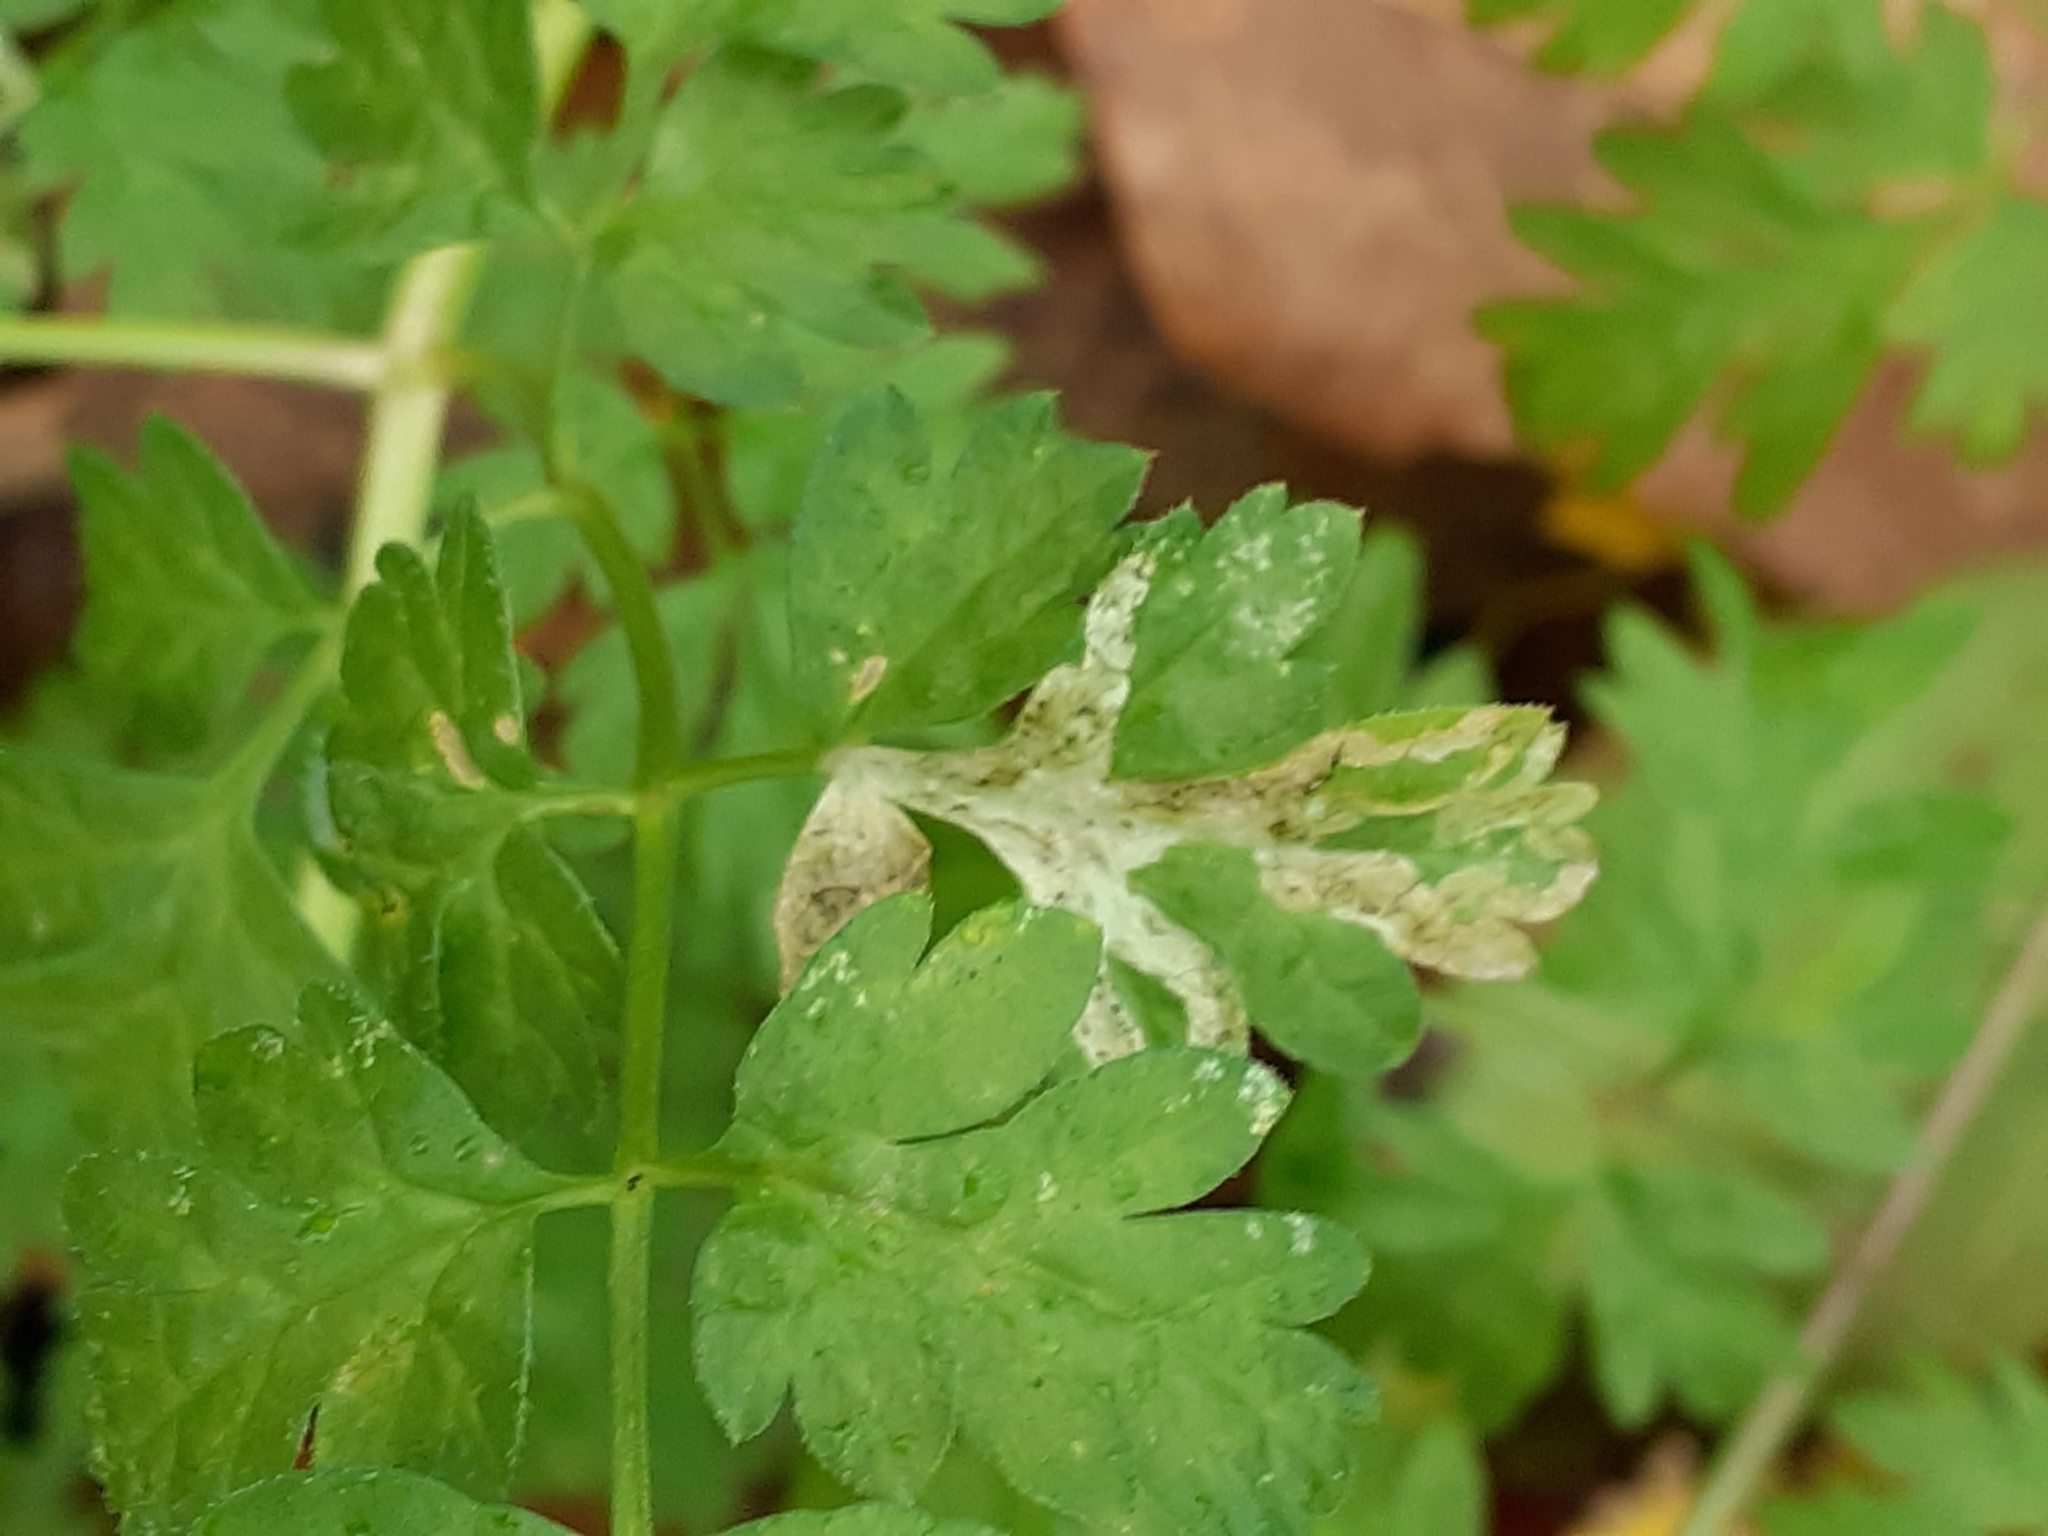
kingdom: Animalia
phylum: Arthropoda
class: Insecta
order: Diptera
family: Agromyzidae
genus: Phytomyza
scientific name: Phytomyza chaerophylli
